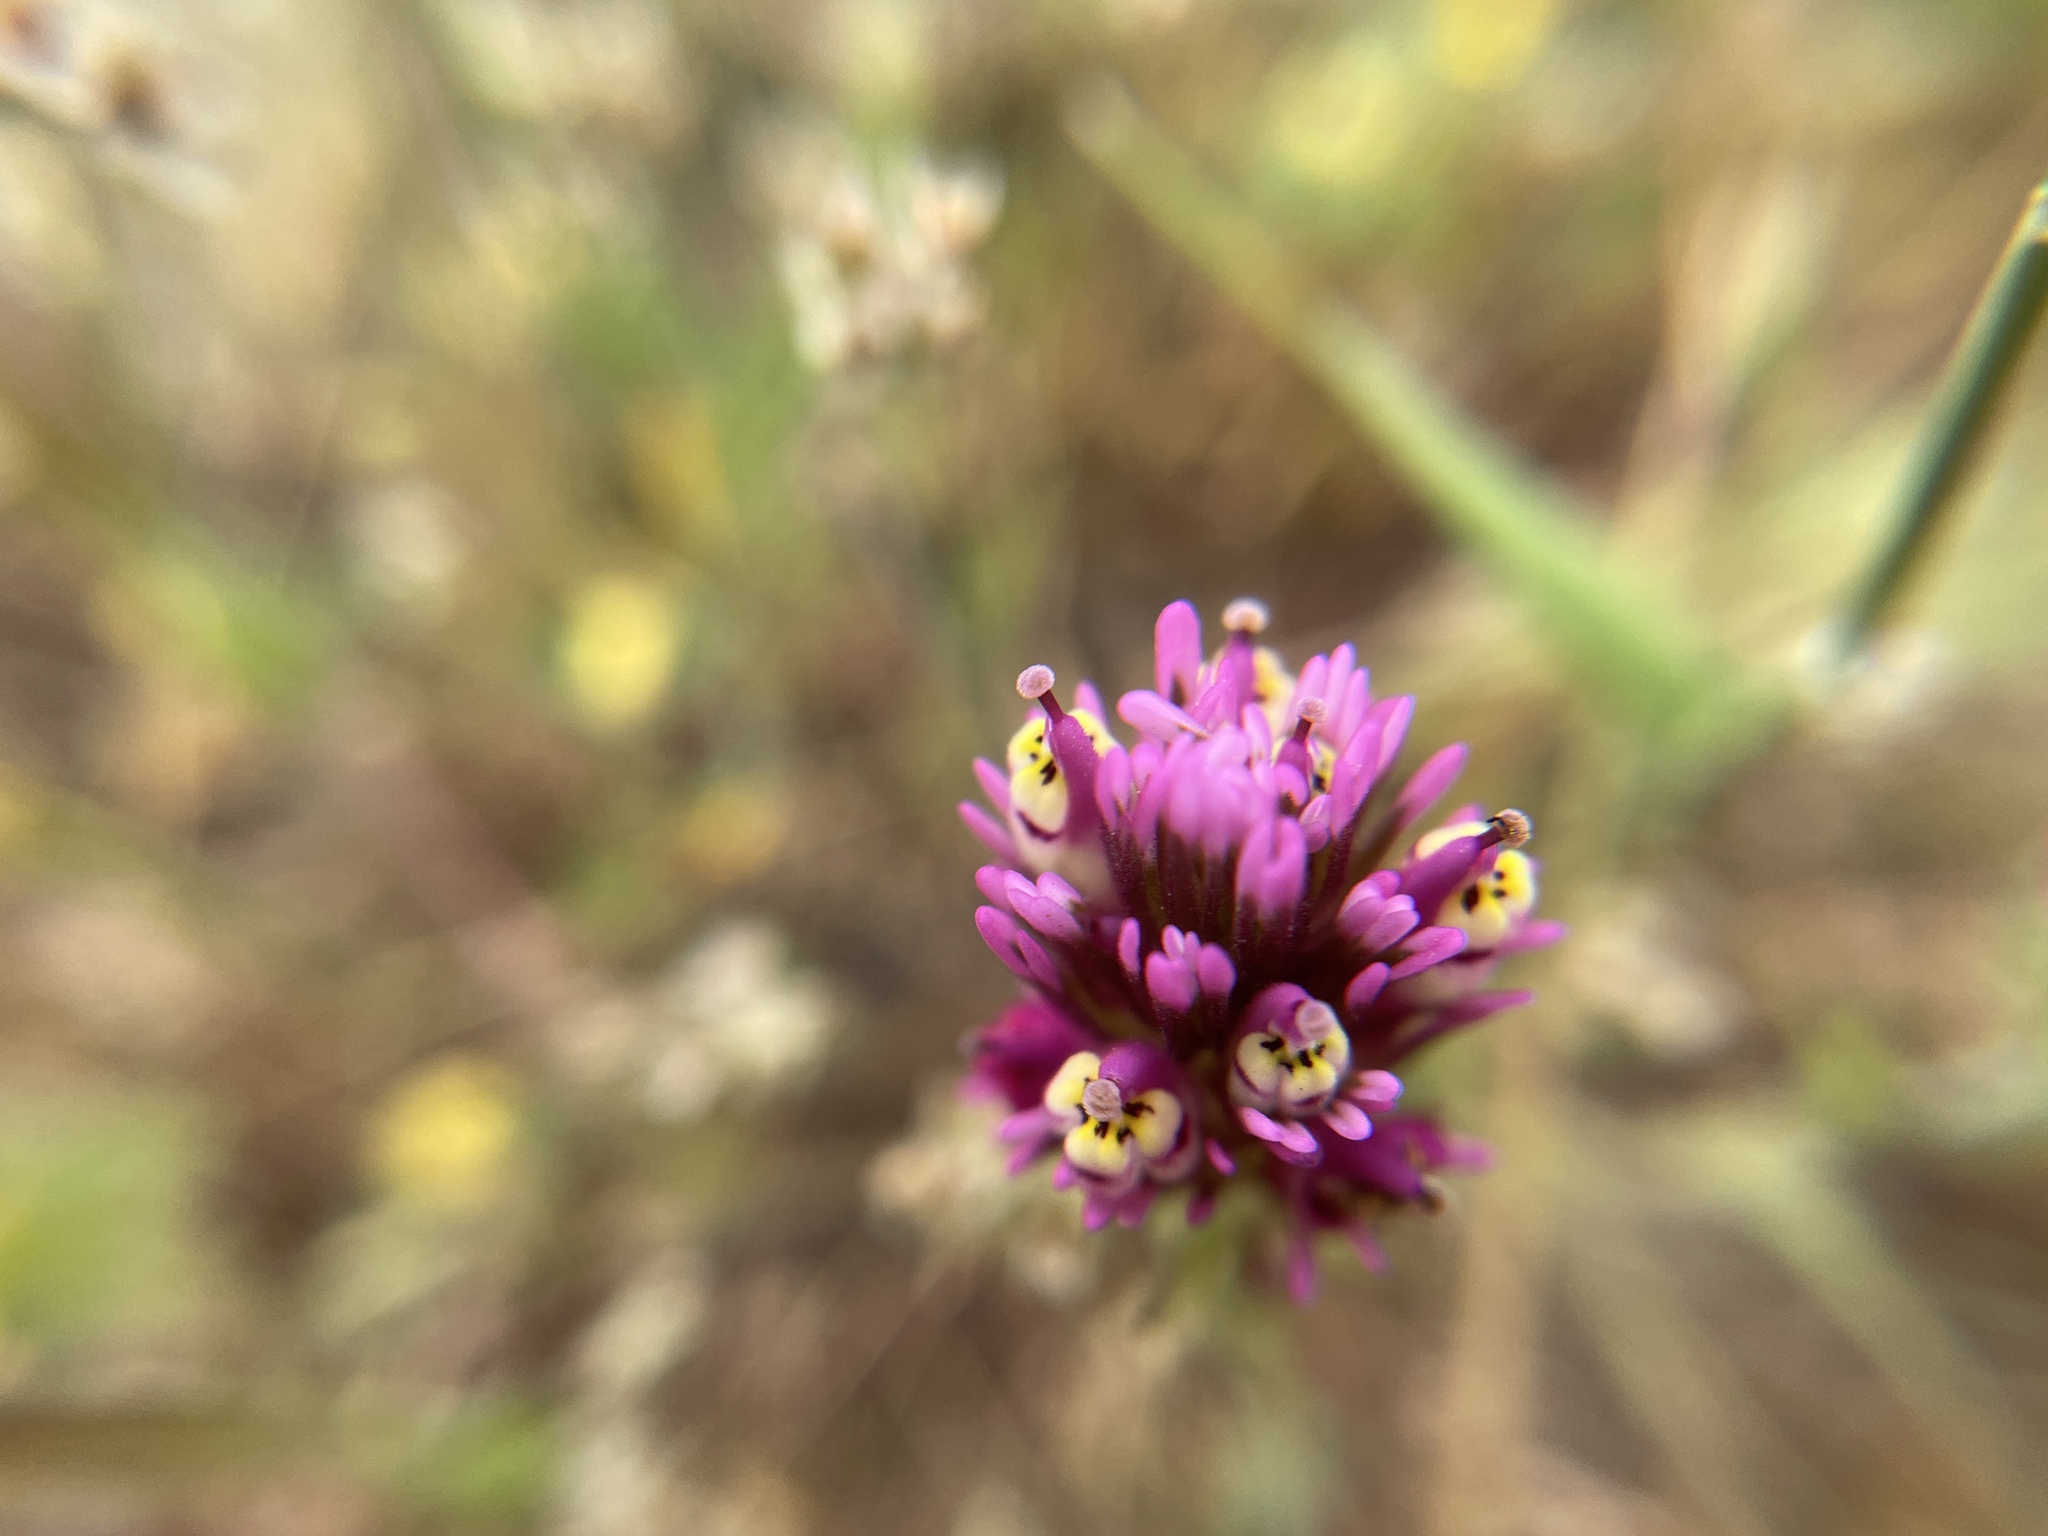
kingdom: Plantae
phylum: Tracheophyta
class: Magnoliopsida
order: Lamiales
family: Orobanchaceae
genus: Castilleja
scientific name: Castilleja densiflora
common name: Dense-flower indian paintbrush
